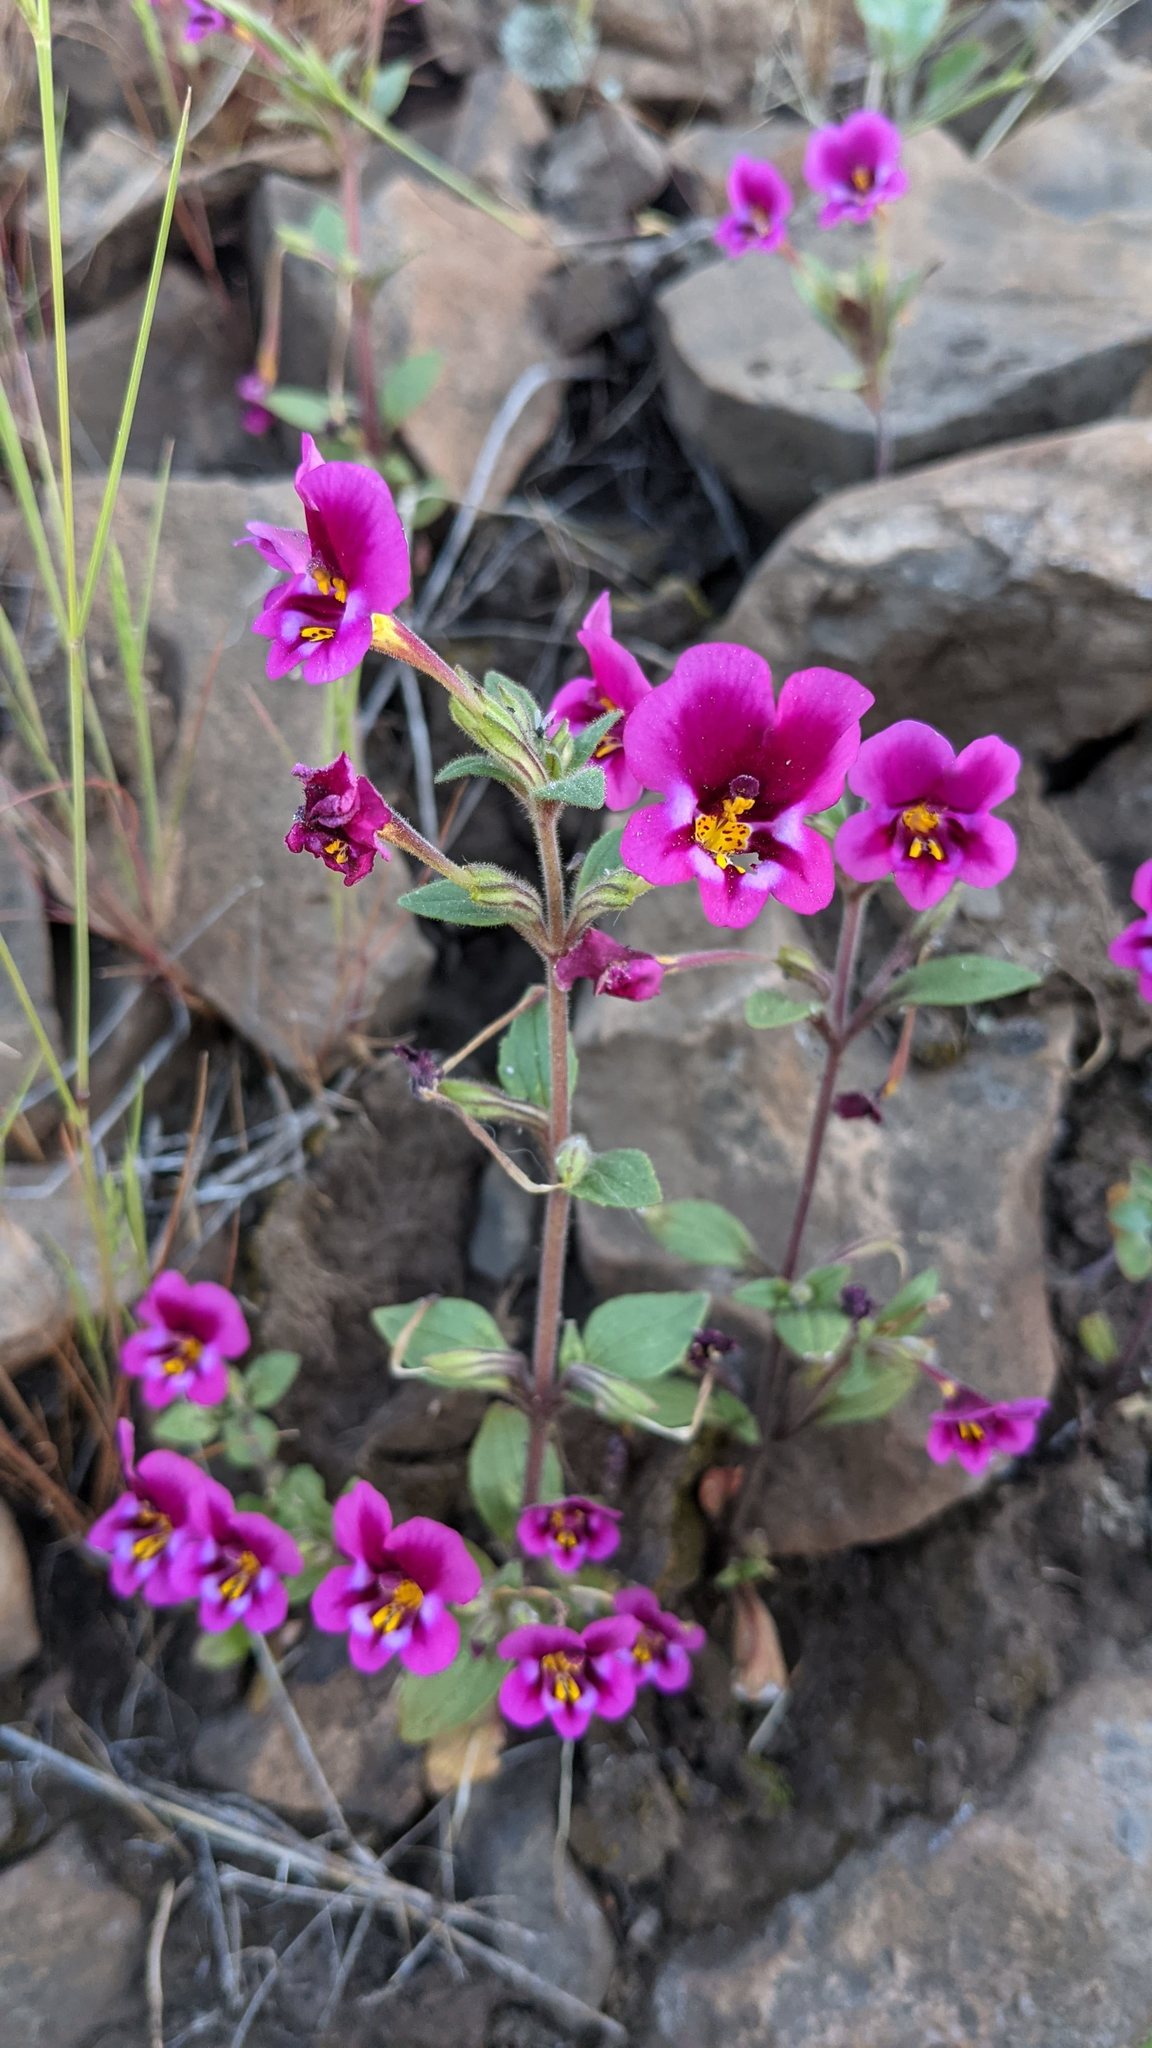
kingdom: Plantae
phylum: Tracheophyta
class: Magnoliopsida
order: Lamiales
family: Phrymaceae
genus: Diplacus
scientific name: Diplacus kelloggii
